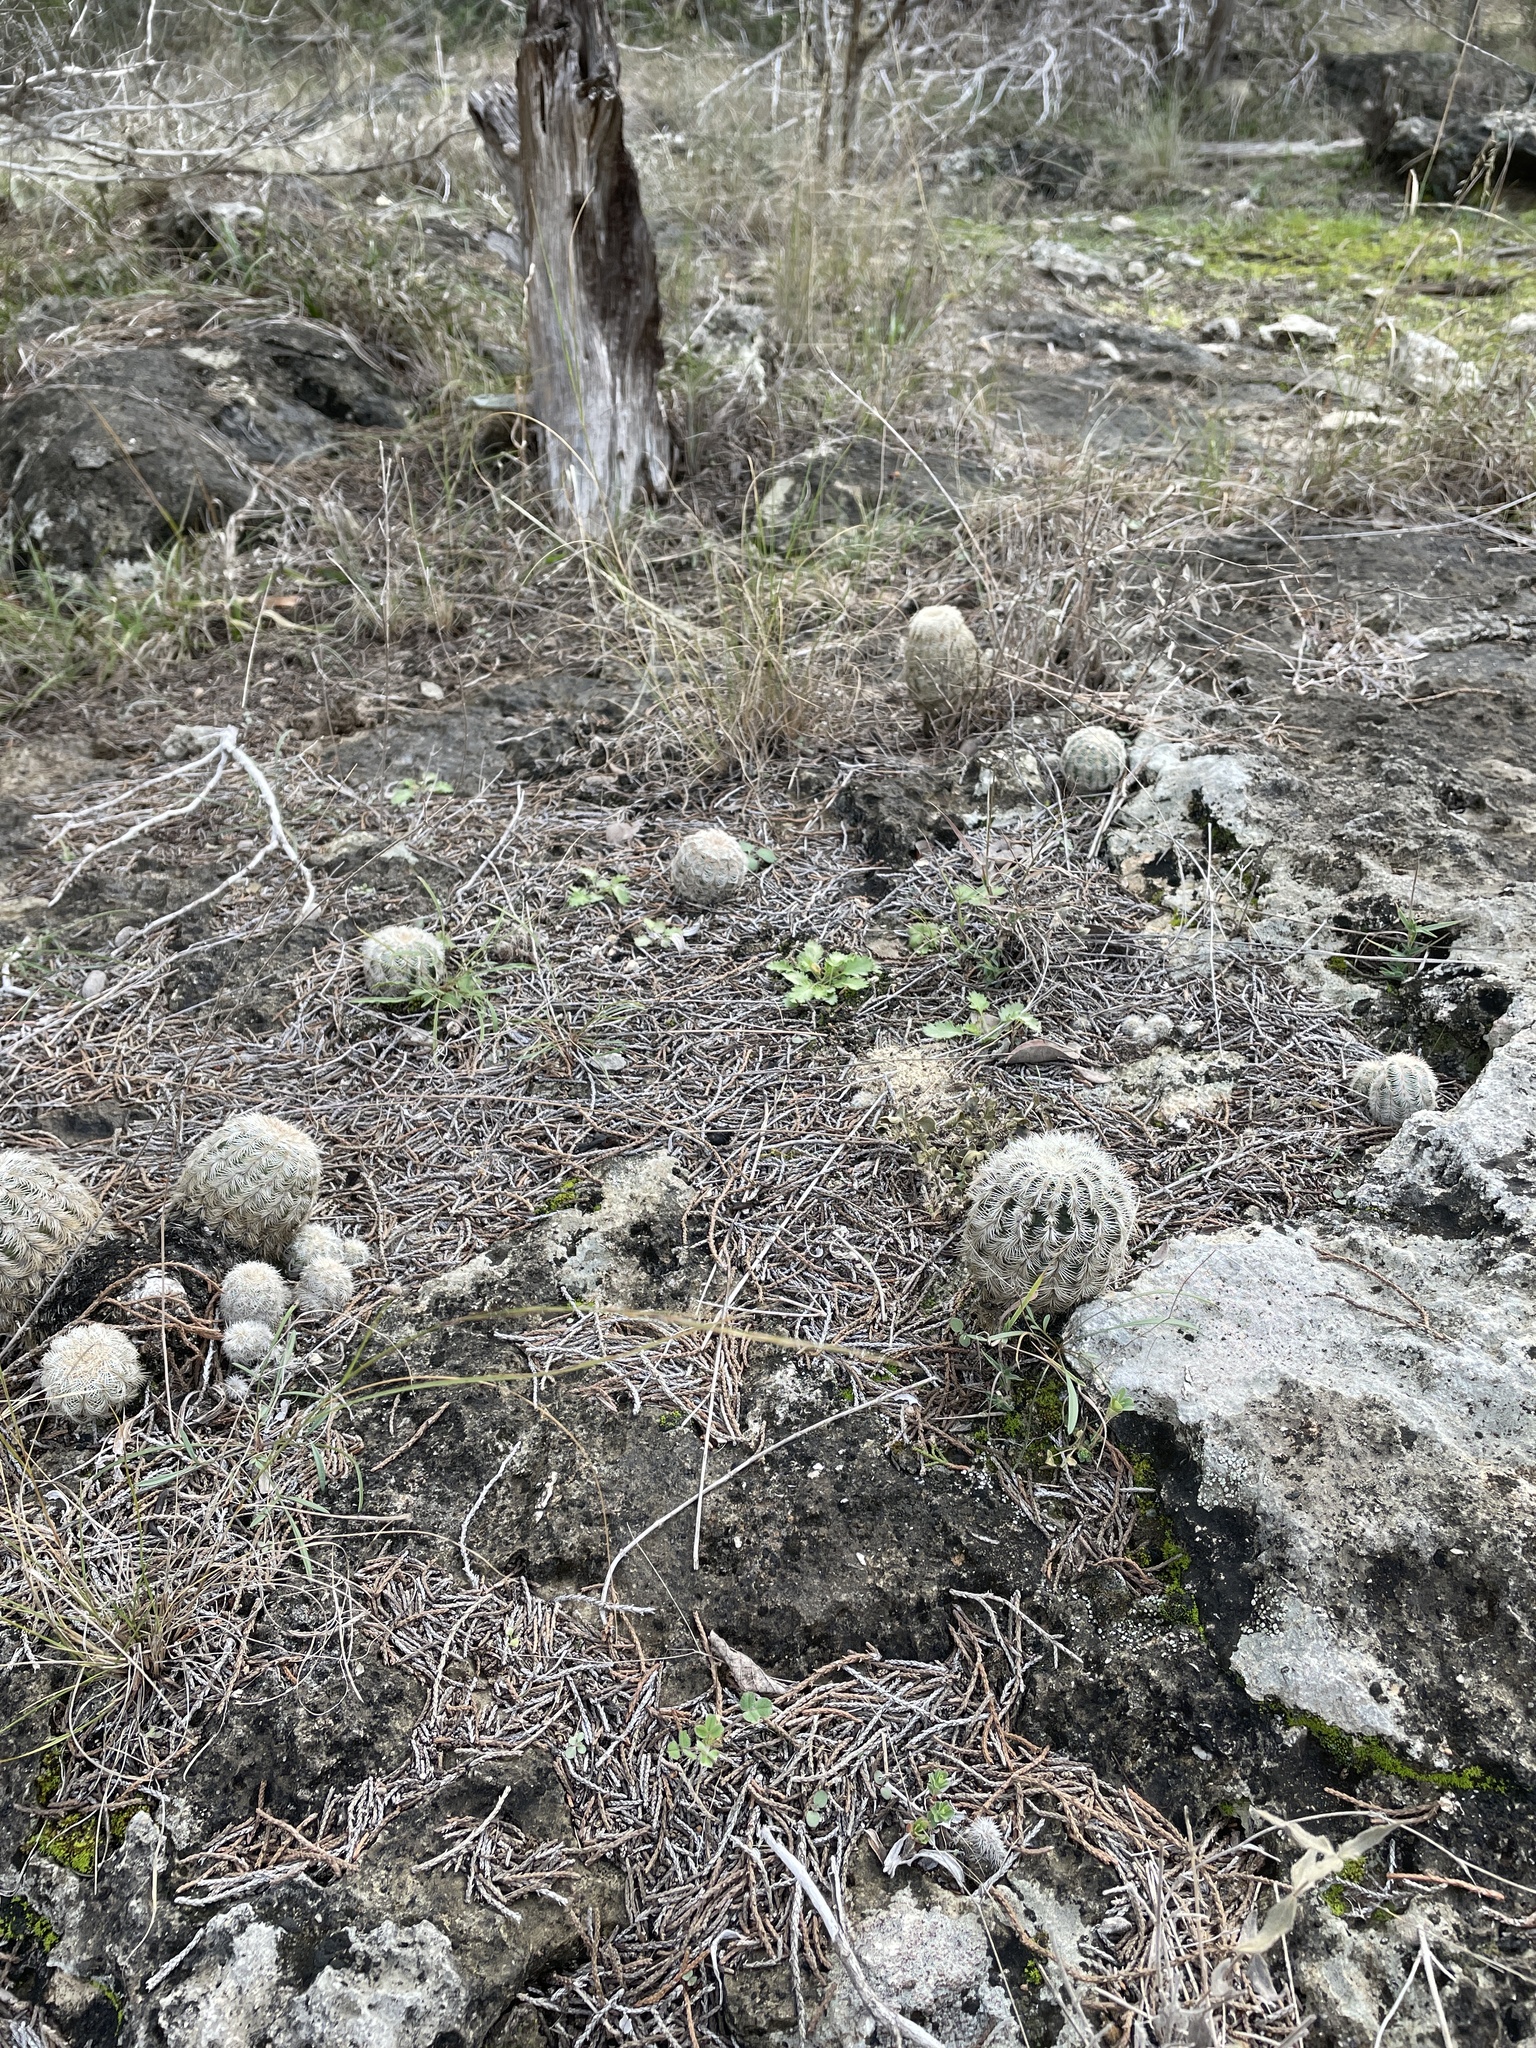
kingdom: Plantae
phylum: Tracheophyta
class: Magnoliopsida
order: Caryophyllales
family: Cactaceae
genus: Echinocereus
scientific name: Echinocereus reichenbachii
